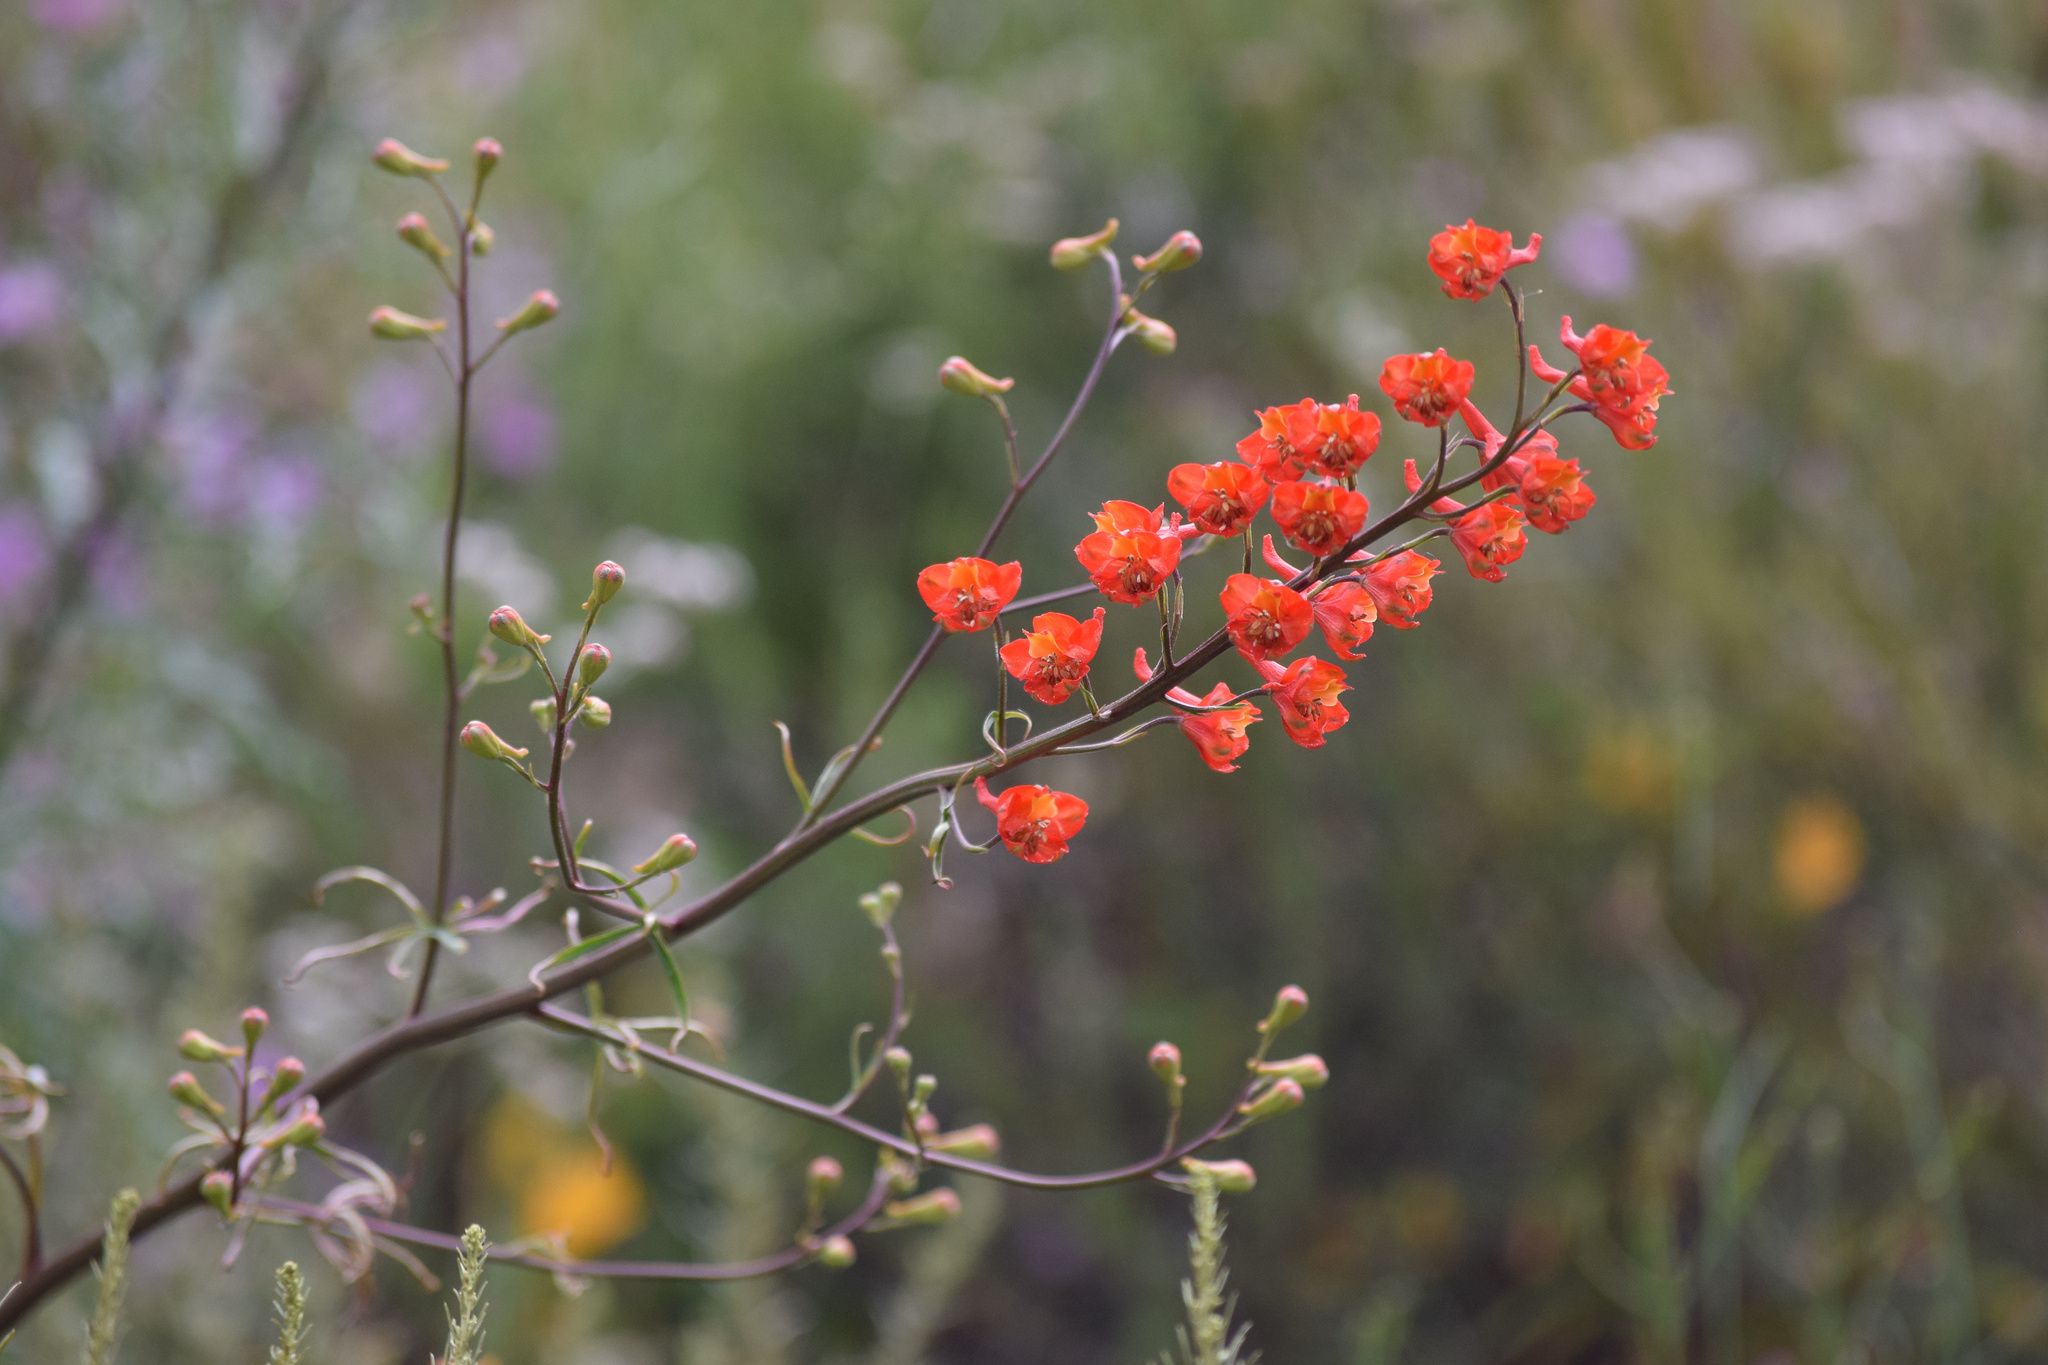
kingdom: Plantae
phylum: Tracheophyta
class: Magnoliopsida
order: Ranunculales
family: Ranunculaceae
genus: Delphinium
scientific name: Delphinium cardinale
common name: Scarlet larkspur
